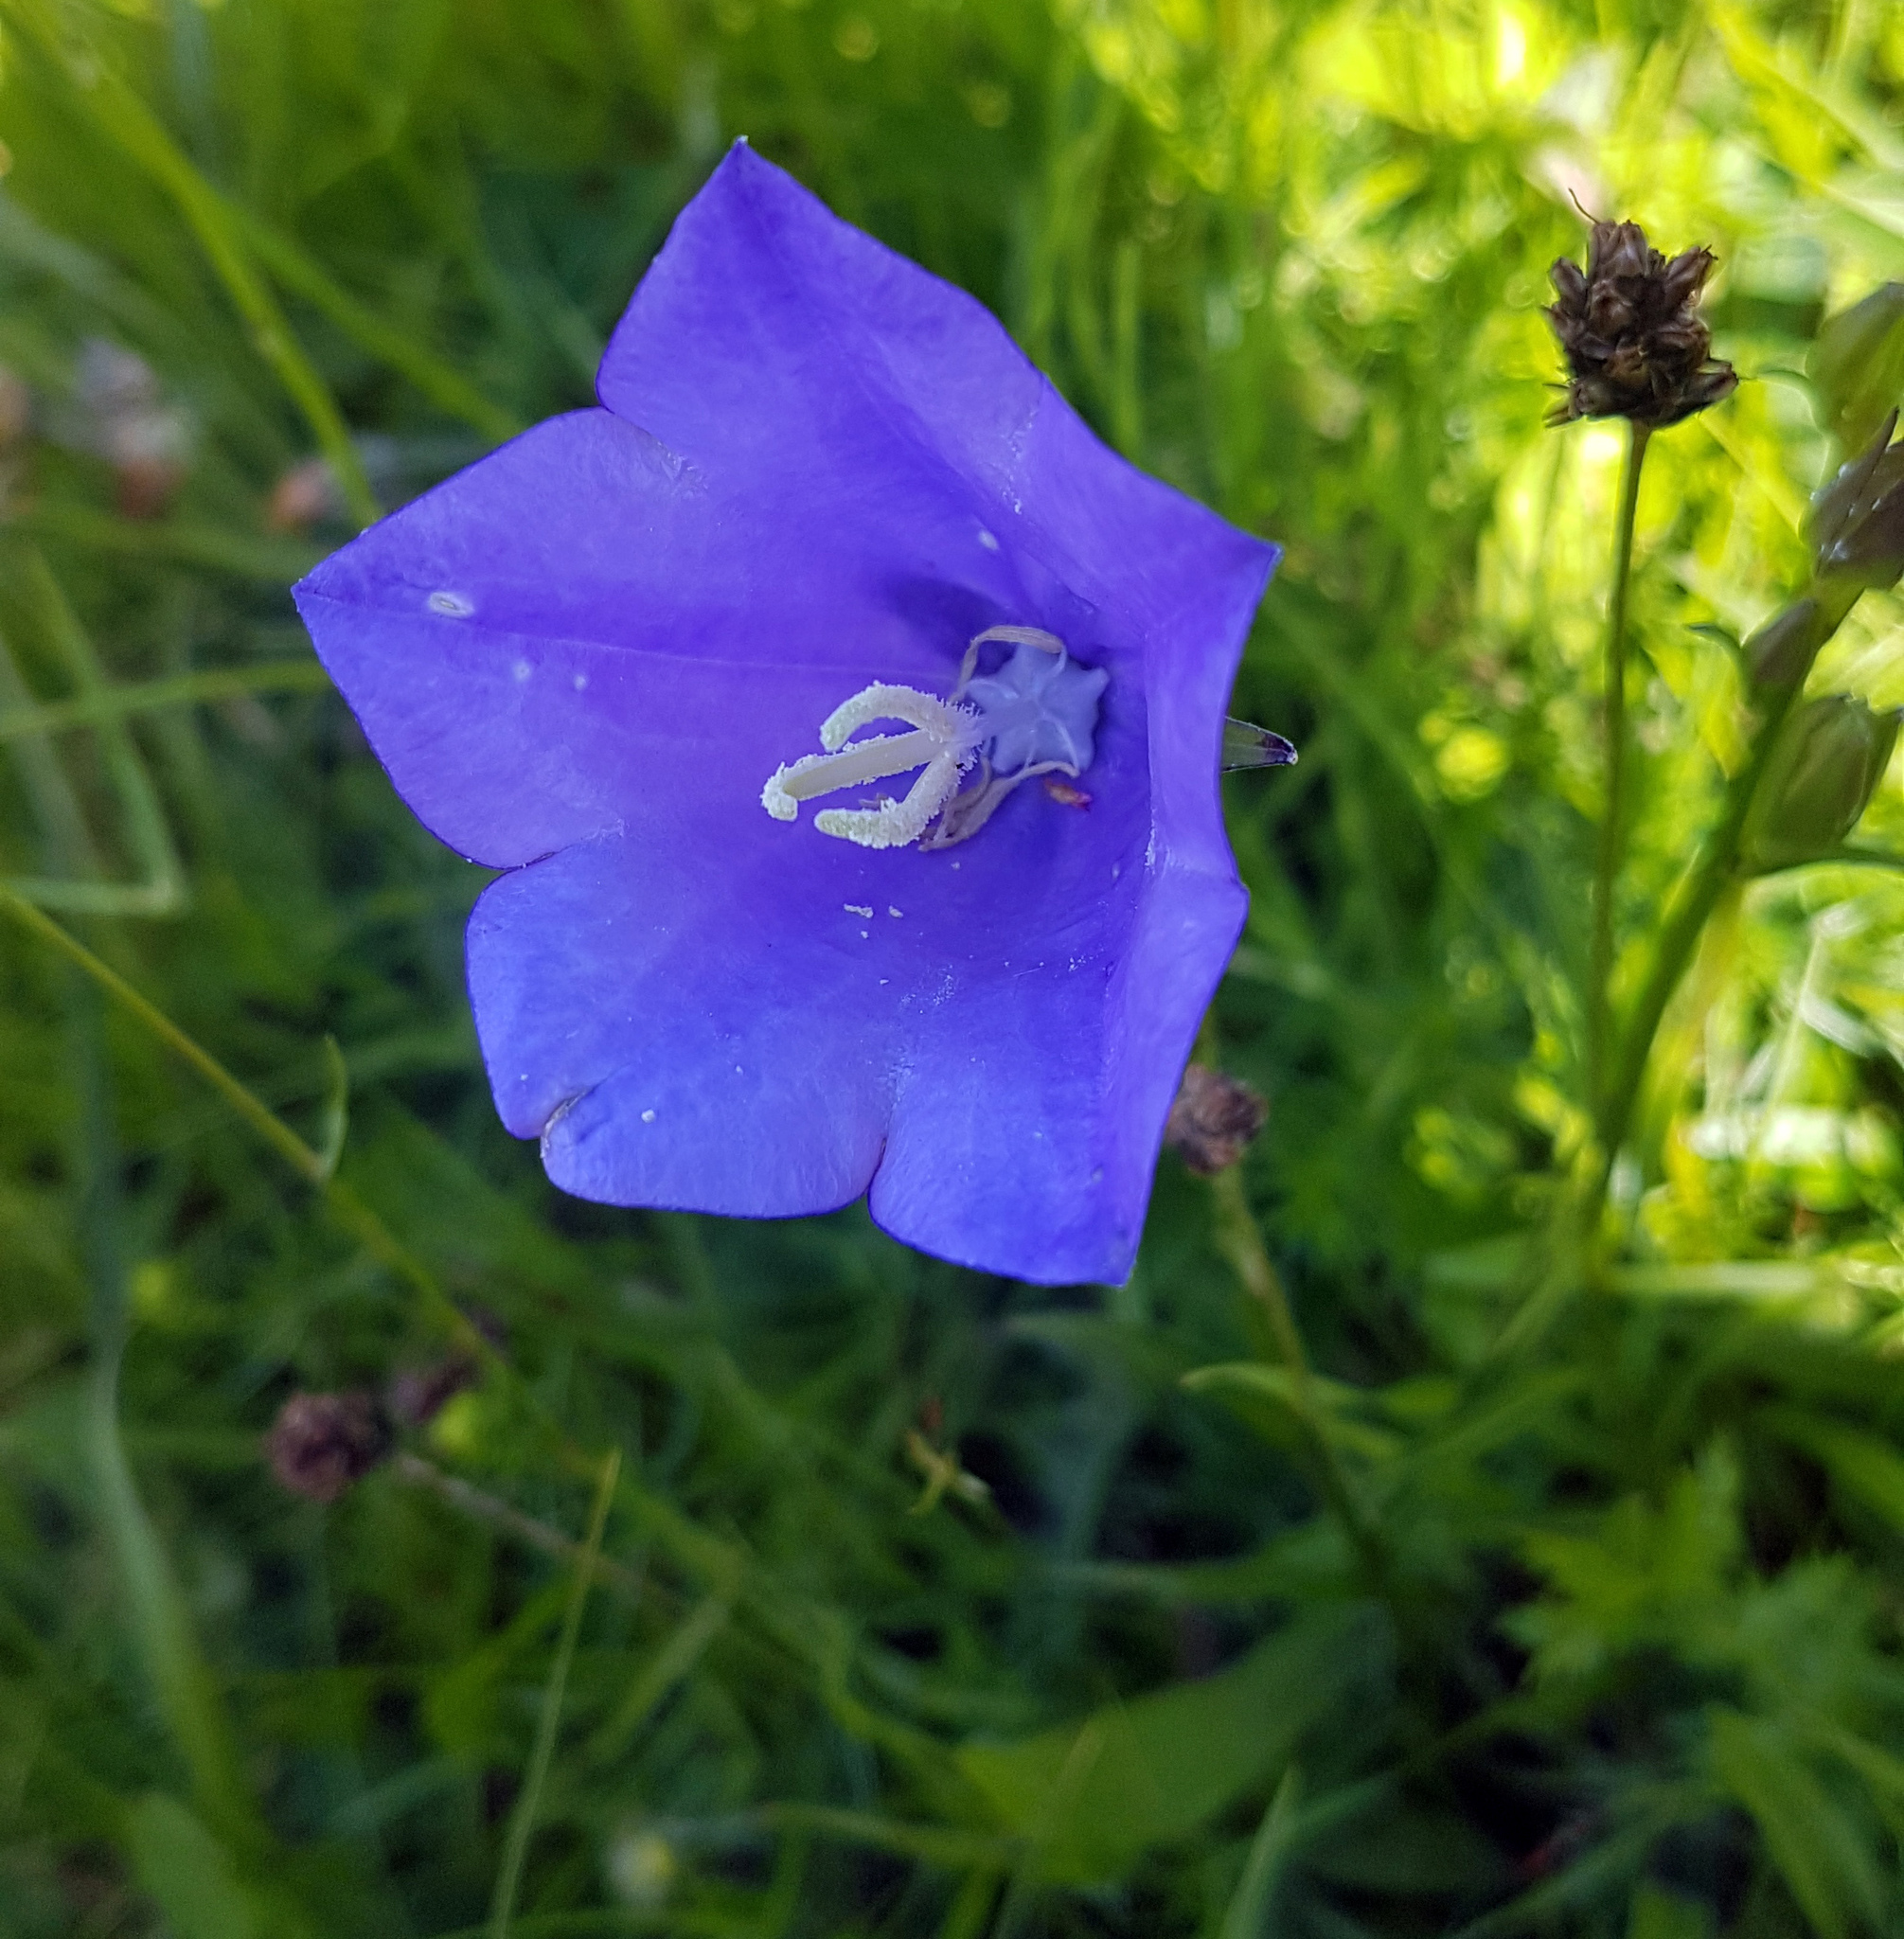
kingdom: Plantae
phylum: Tracheophyta
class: Magnoliopsida
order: Asterales
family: Campanulaceae
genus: Campanula
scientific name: Campanula persicifolia
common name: Peach-leaved bellflower
